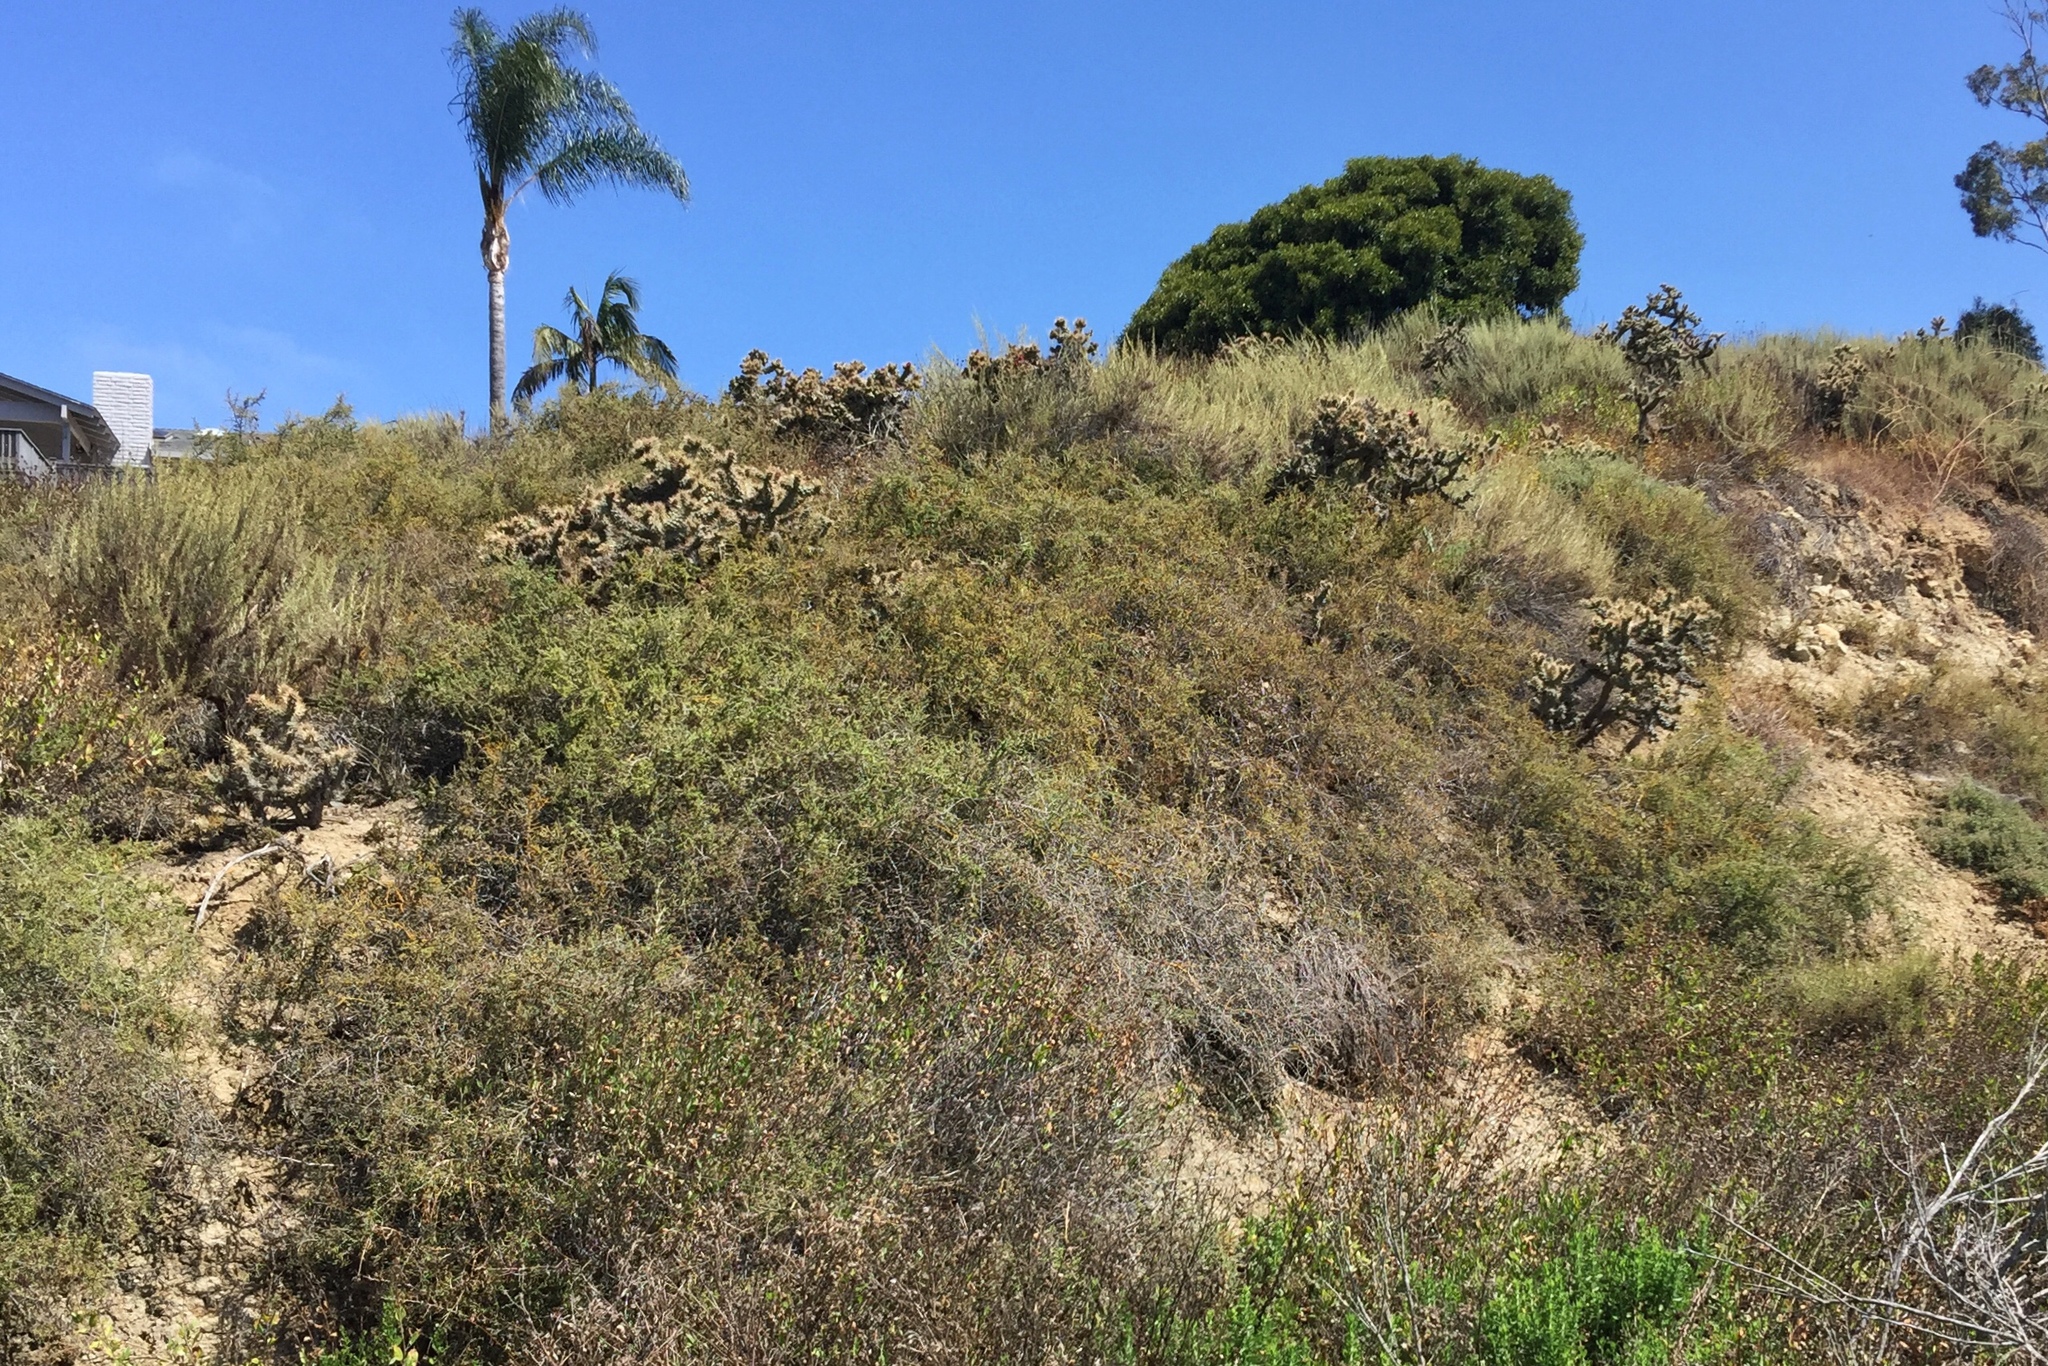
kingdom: Plantae
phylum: Tracheophyta
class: Magnoliopsida
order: Caryophyllales
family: Cactaceae
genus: Cylindropuntia
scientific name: Cylindropuntia prolifera
